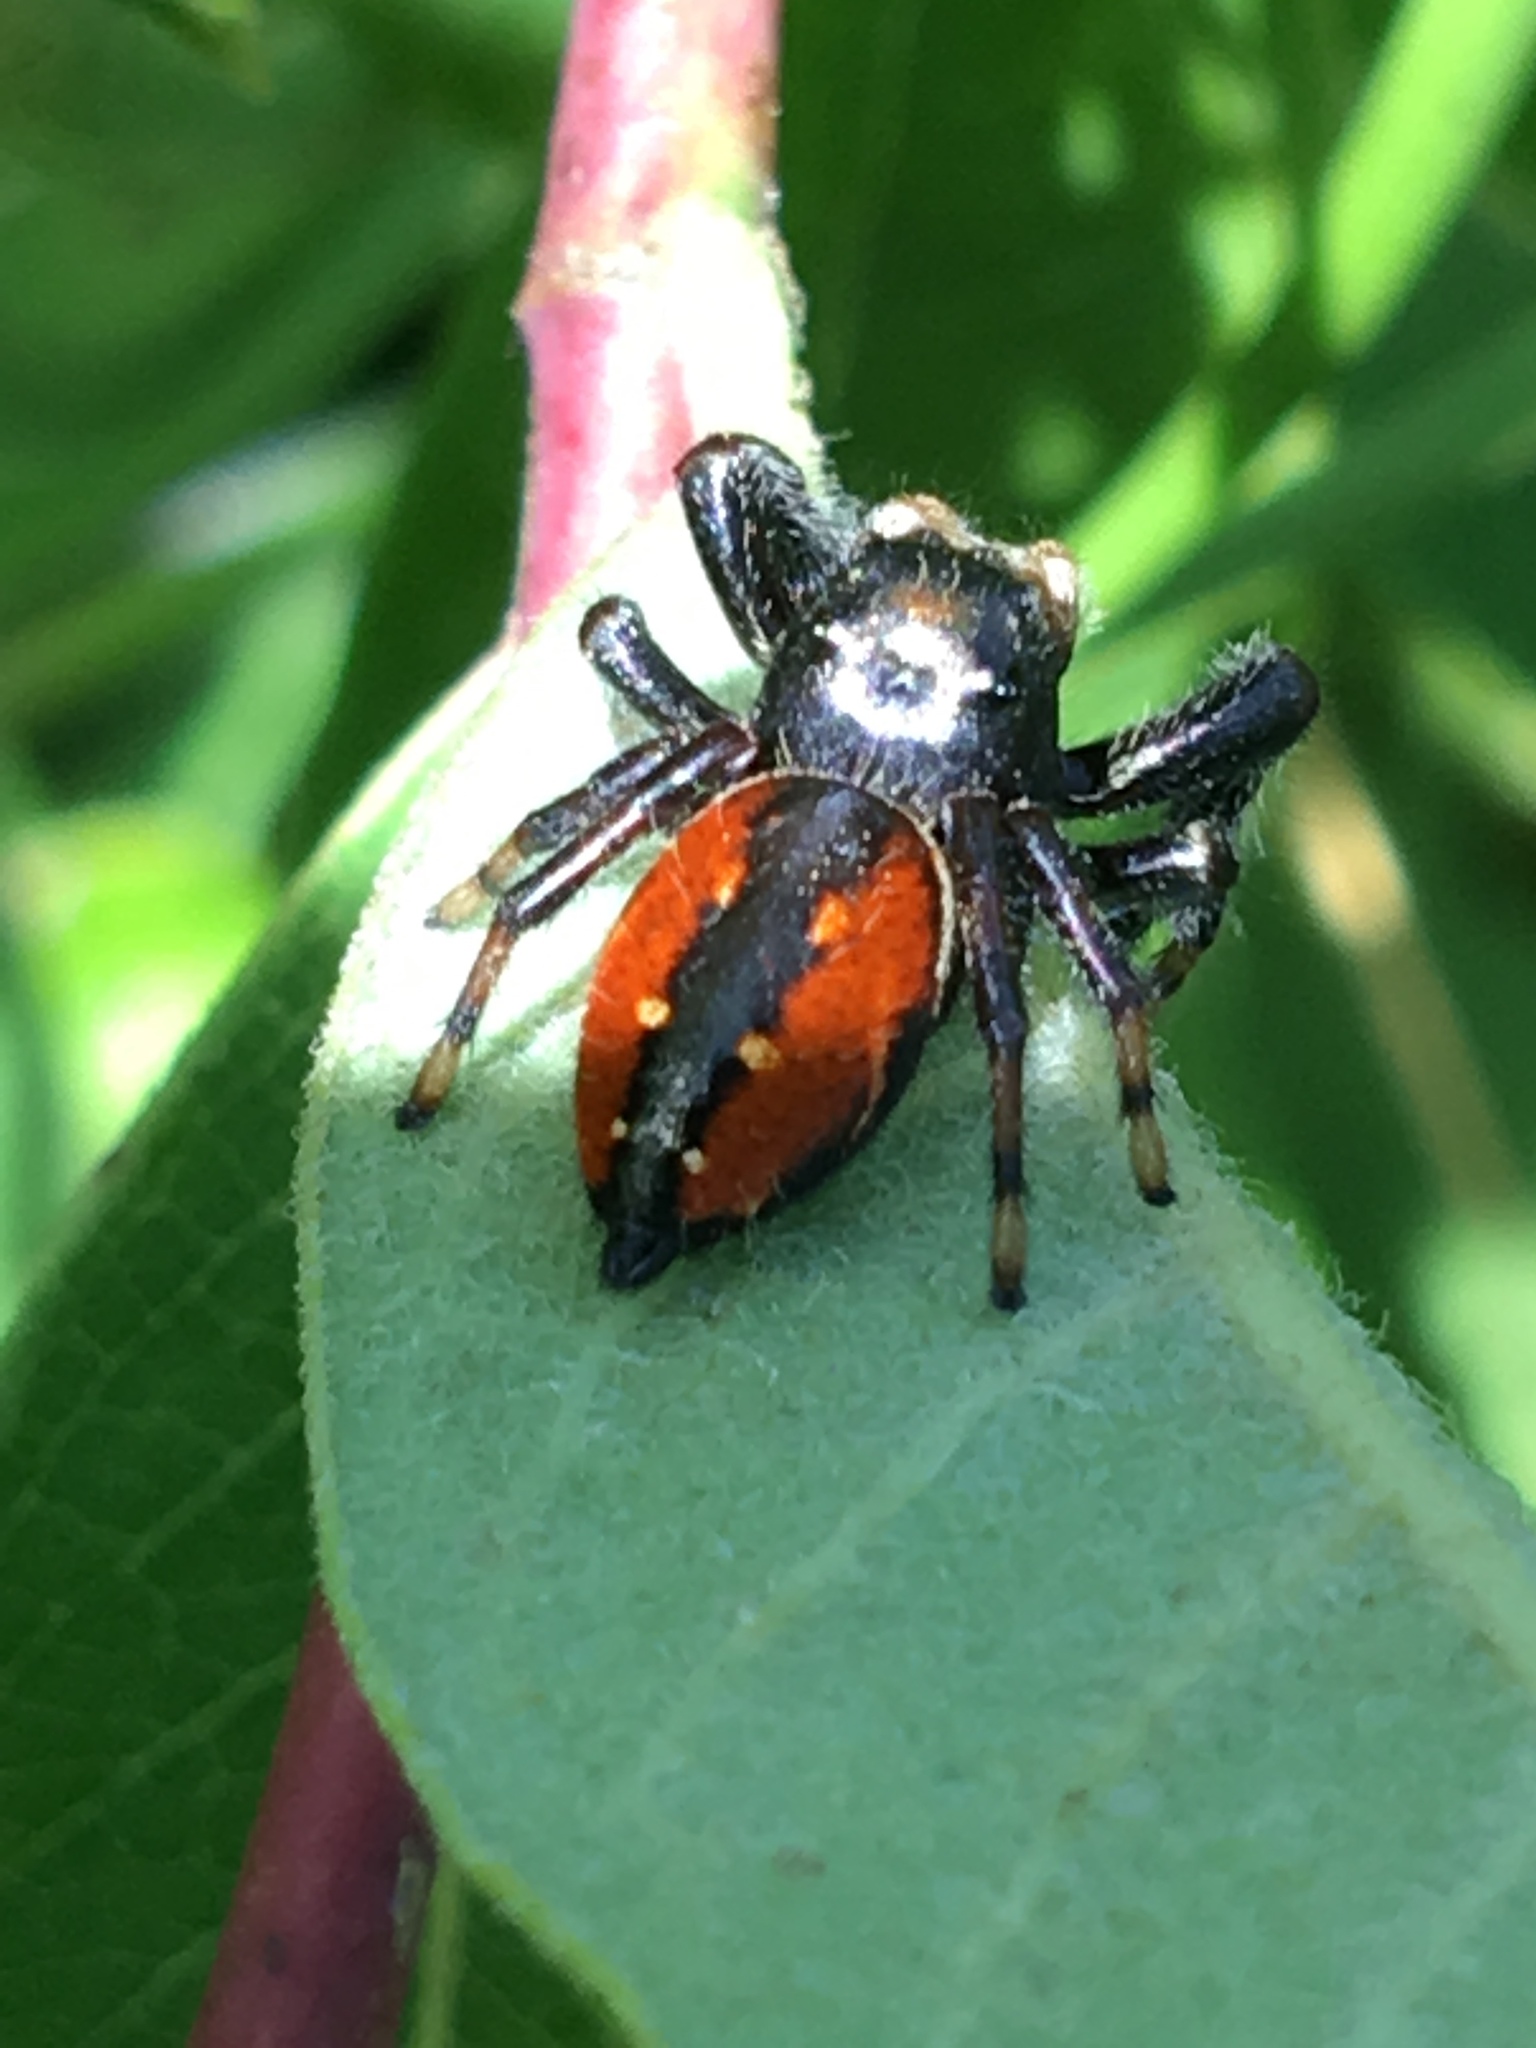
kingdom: Animalia
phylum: Arthropoda
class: Arachnida
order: Araneae
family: Salticidae
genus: Phidippus
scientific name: Phidippus clarus
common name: Brilliant jumping spider
